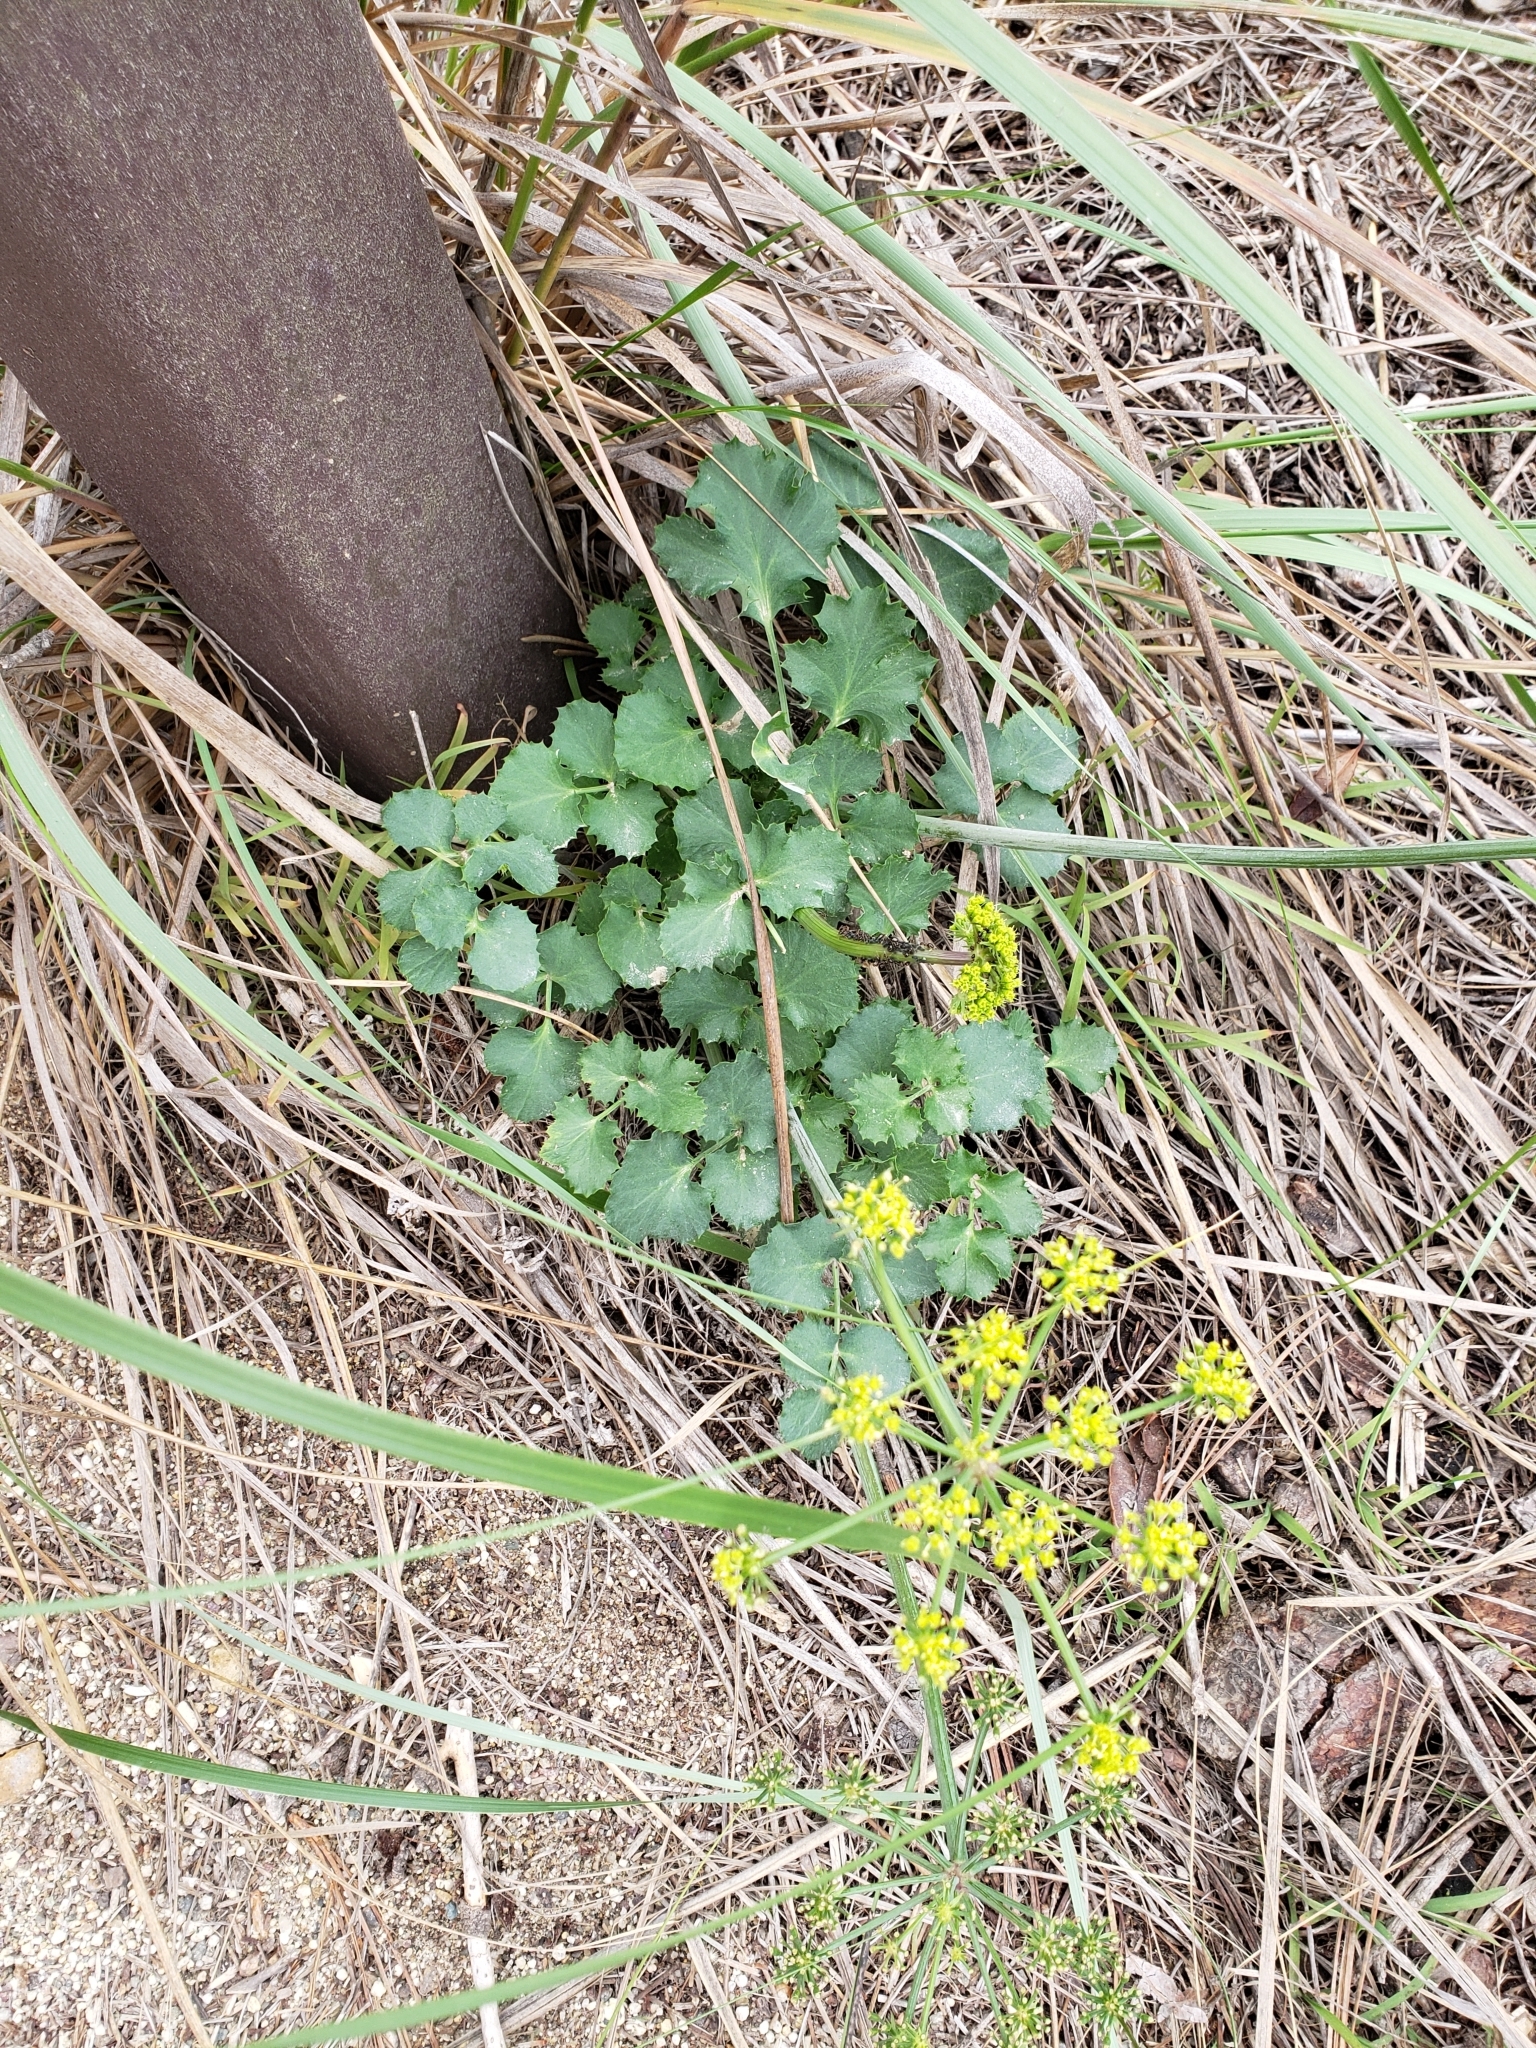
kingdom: Plantae
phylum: Tracheophyta
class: Magnoliopsida
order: Apiales
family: Apiaceae
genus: Lomatium
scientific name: Lomatium lucidum
